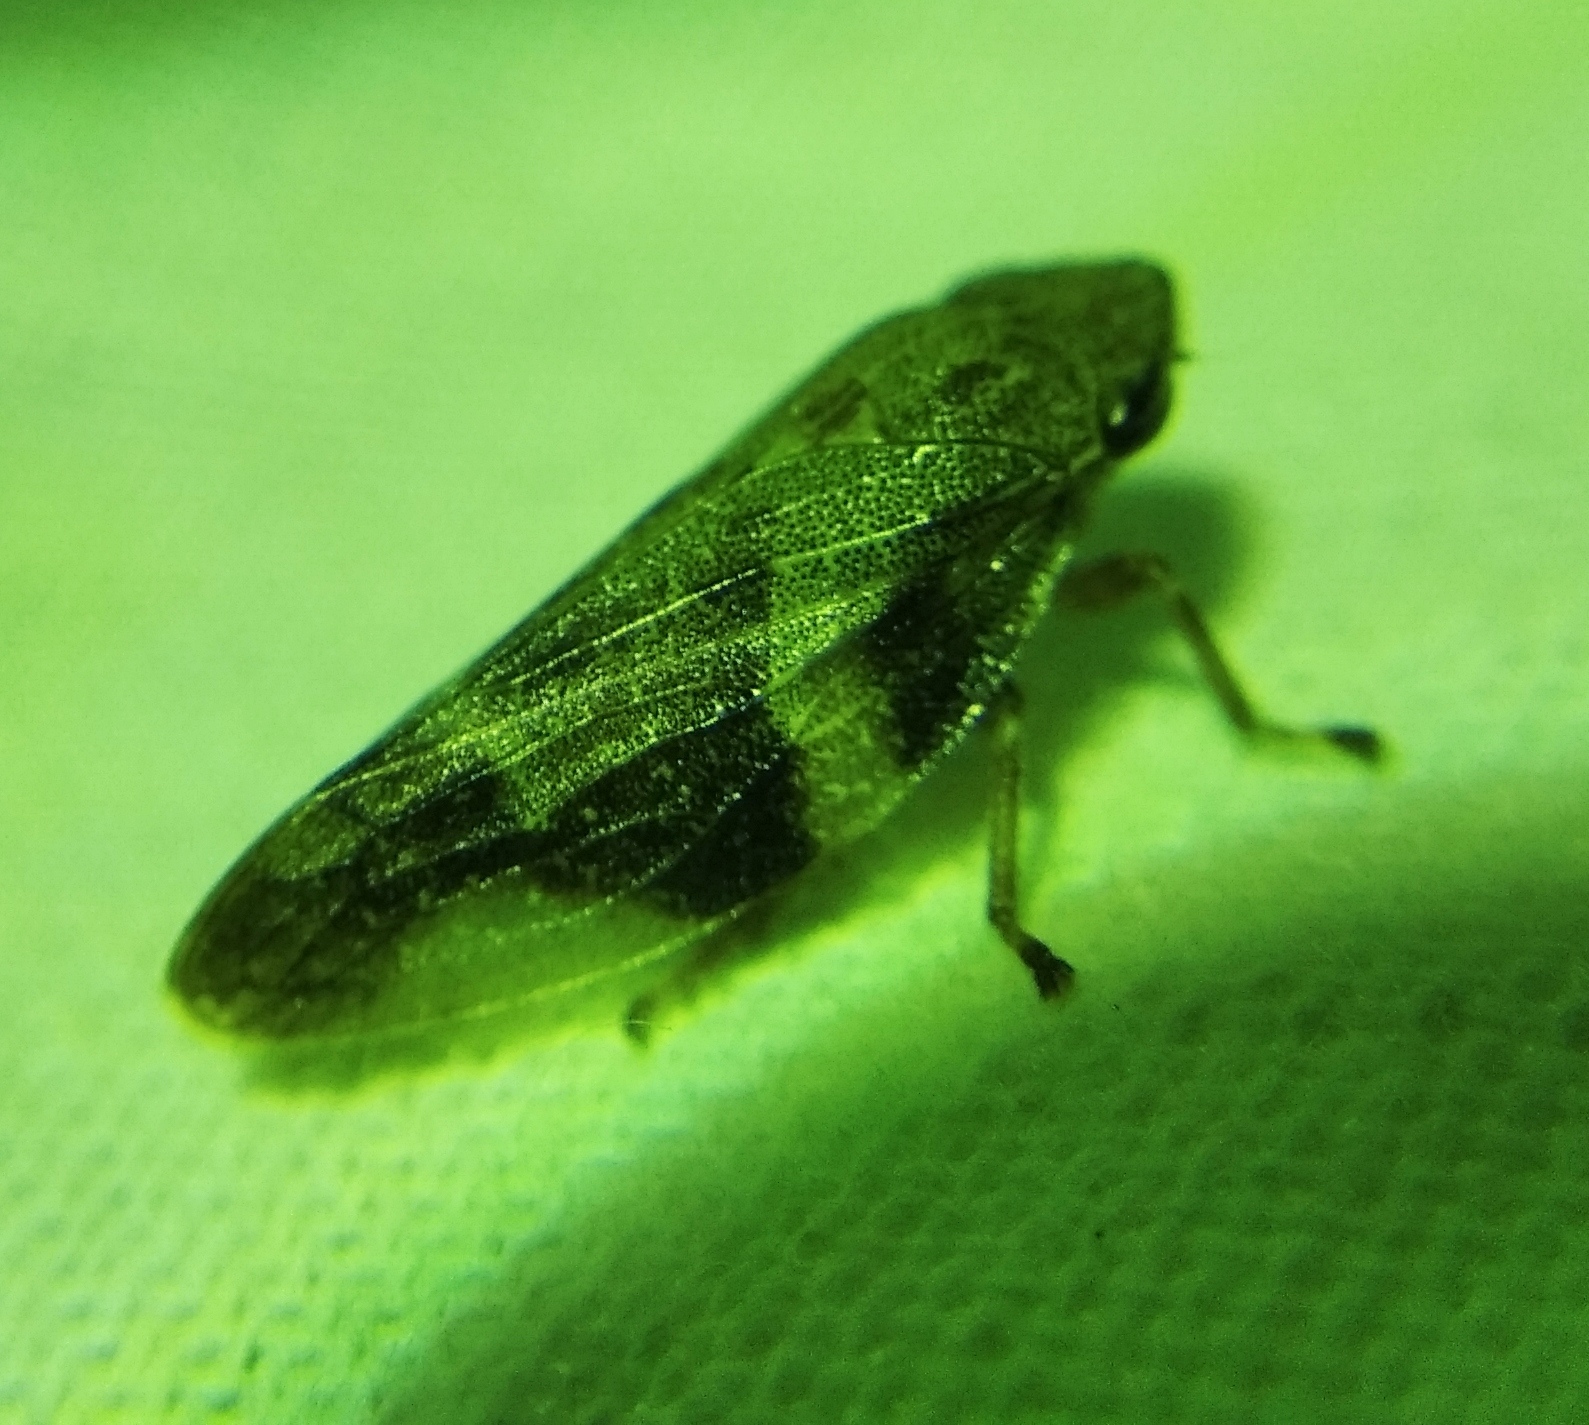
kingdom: Animalia
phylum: Arthropoda
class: Insecta
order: Hemiptera
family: Aphrophoridae
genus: Aphrophora
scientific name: Aphrophora alni
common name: European alder spittlebug
